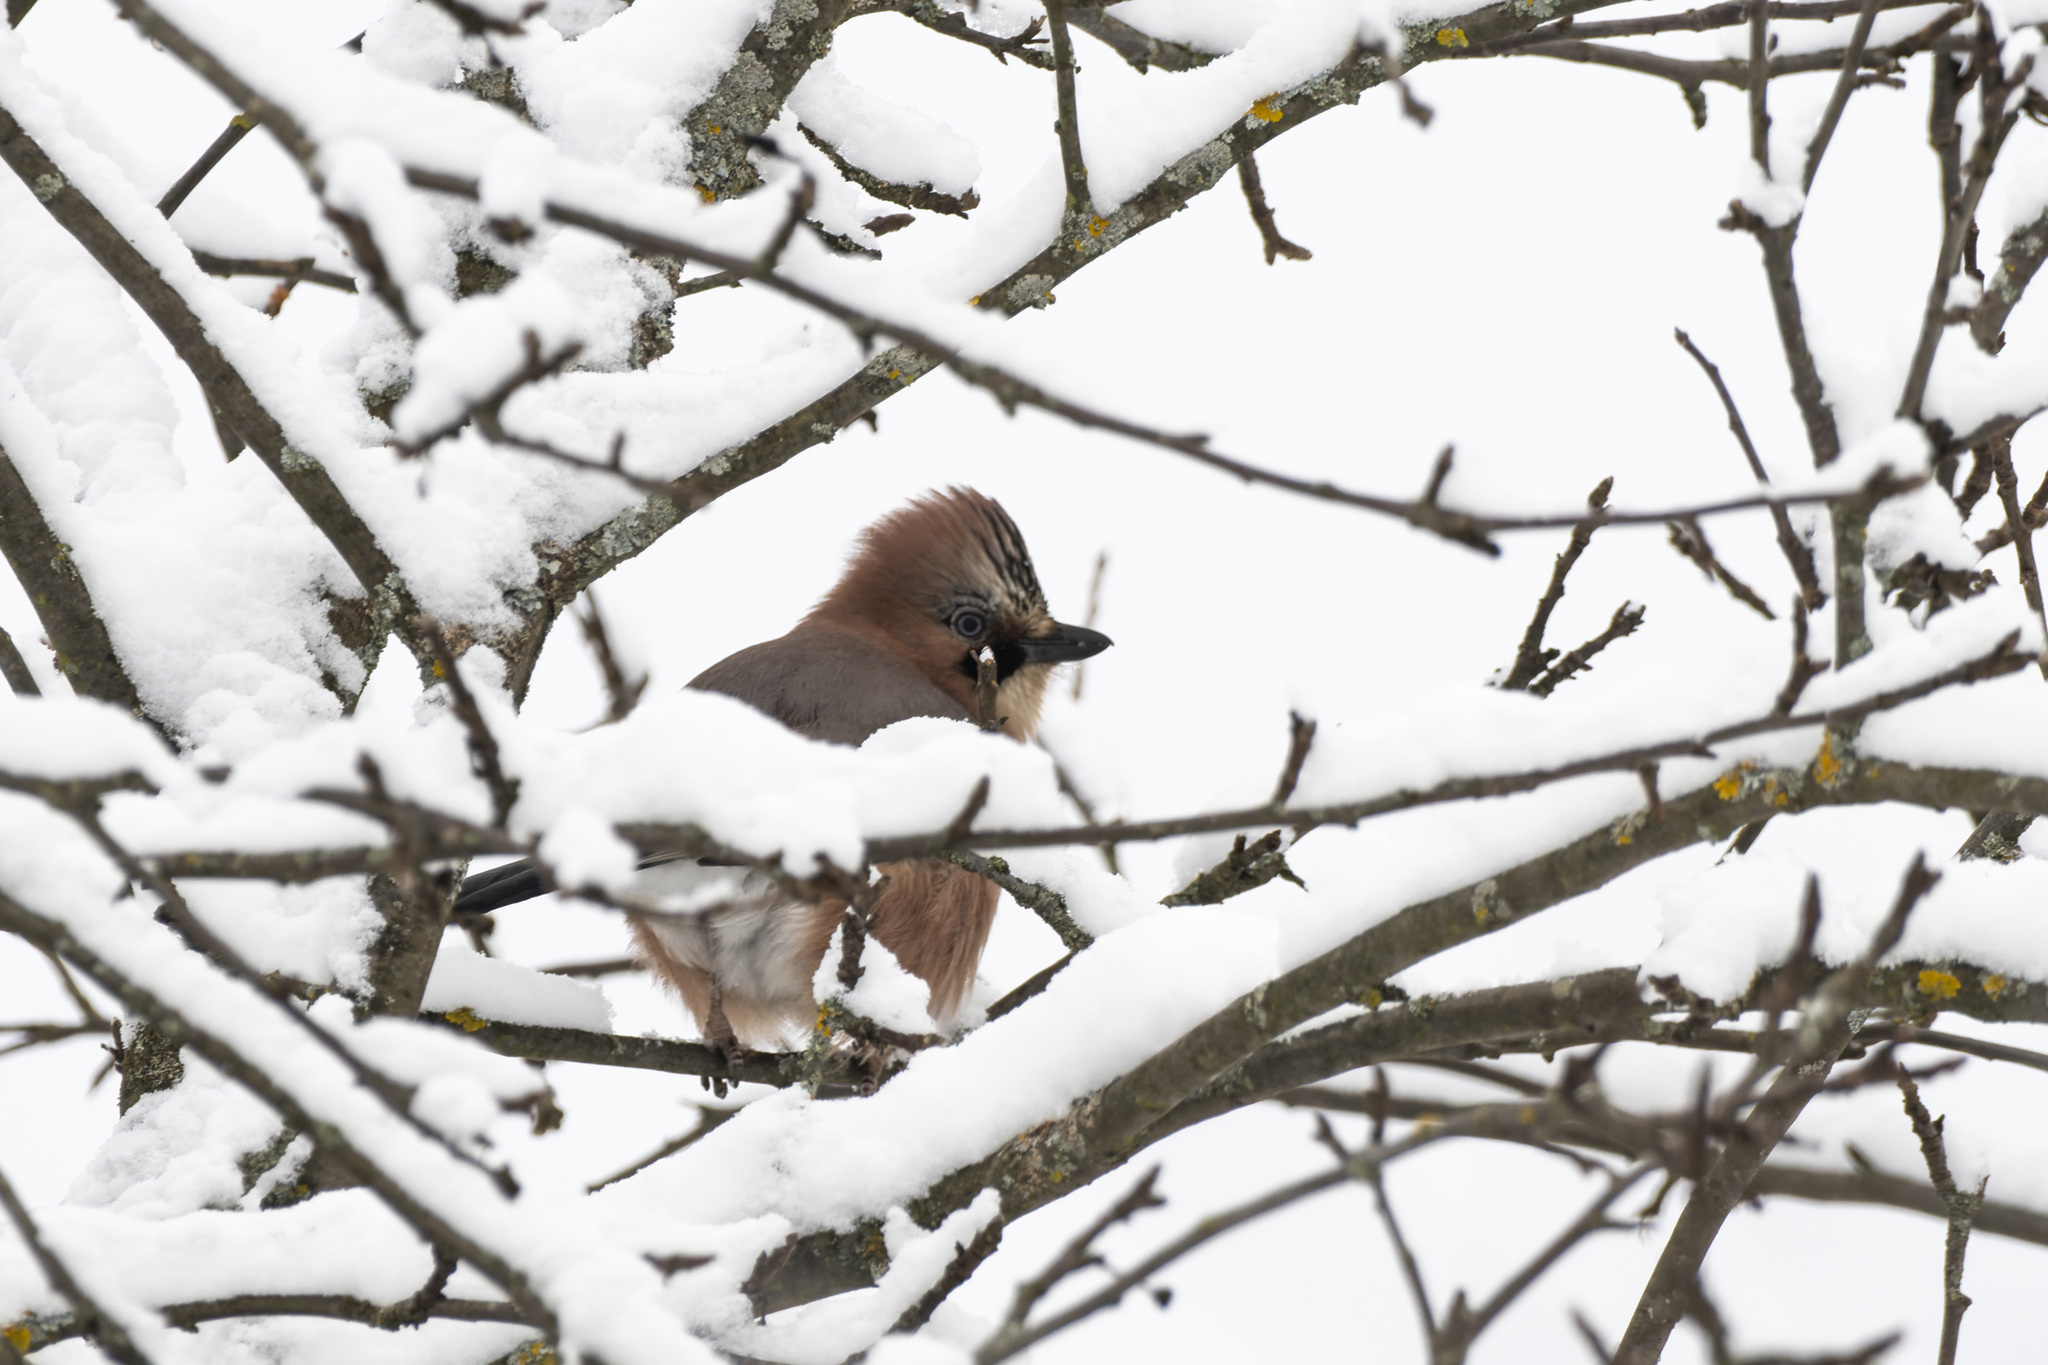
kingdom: Animalia
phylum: Chordata
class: Aves
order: Passeriformes
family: Corvidae
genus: Garrulus
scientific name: Garrulus glandarius
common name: Eurasian jay
